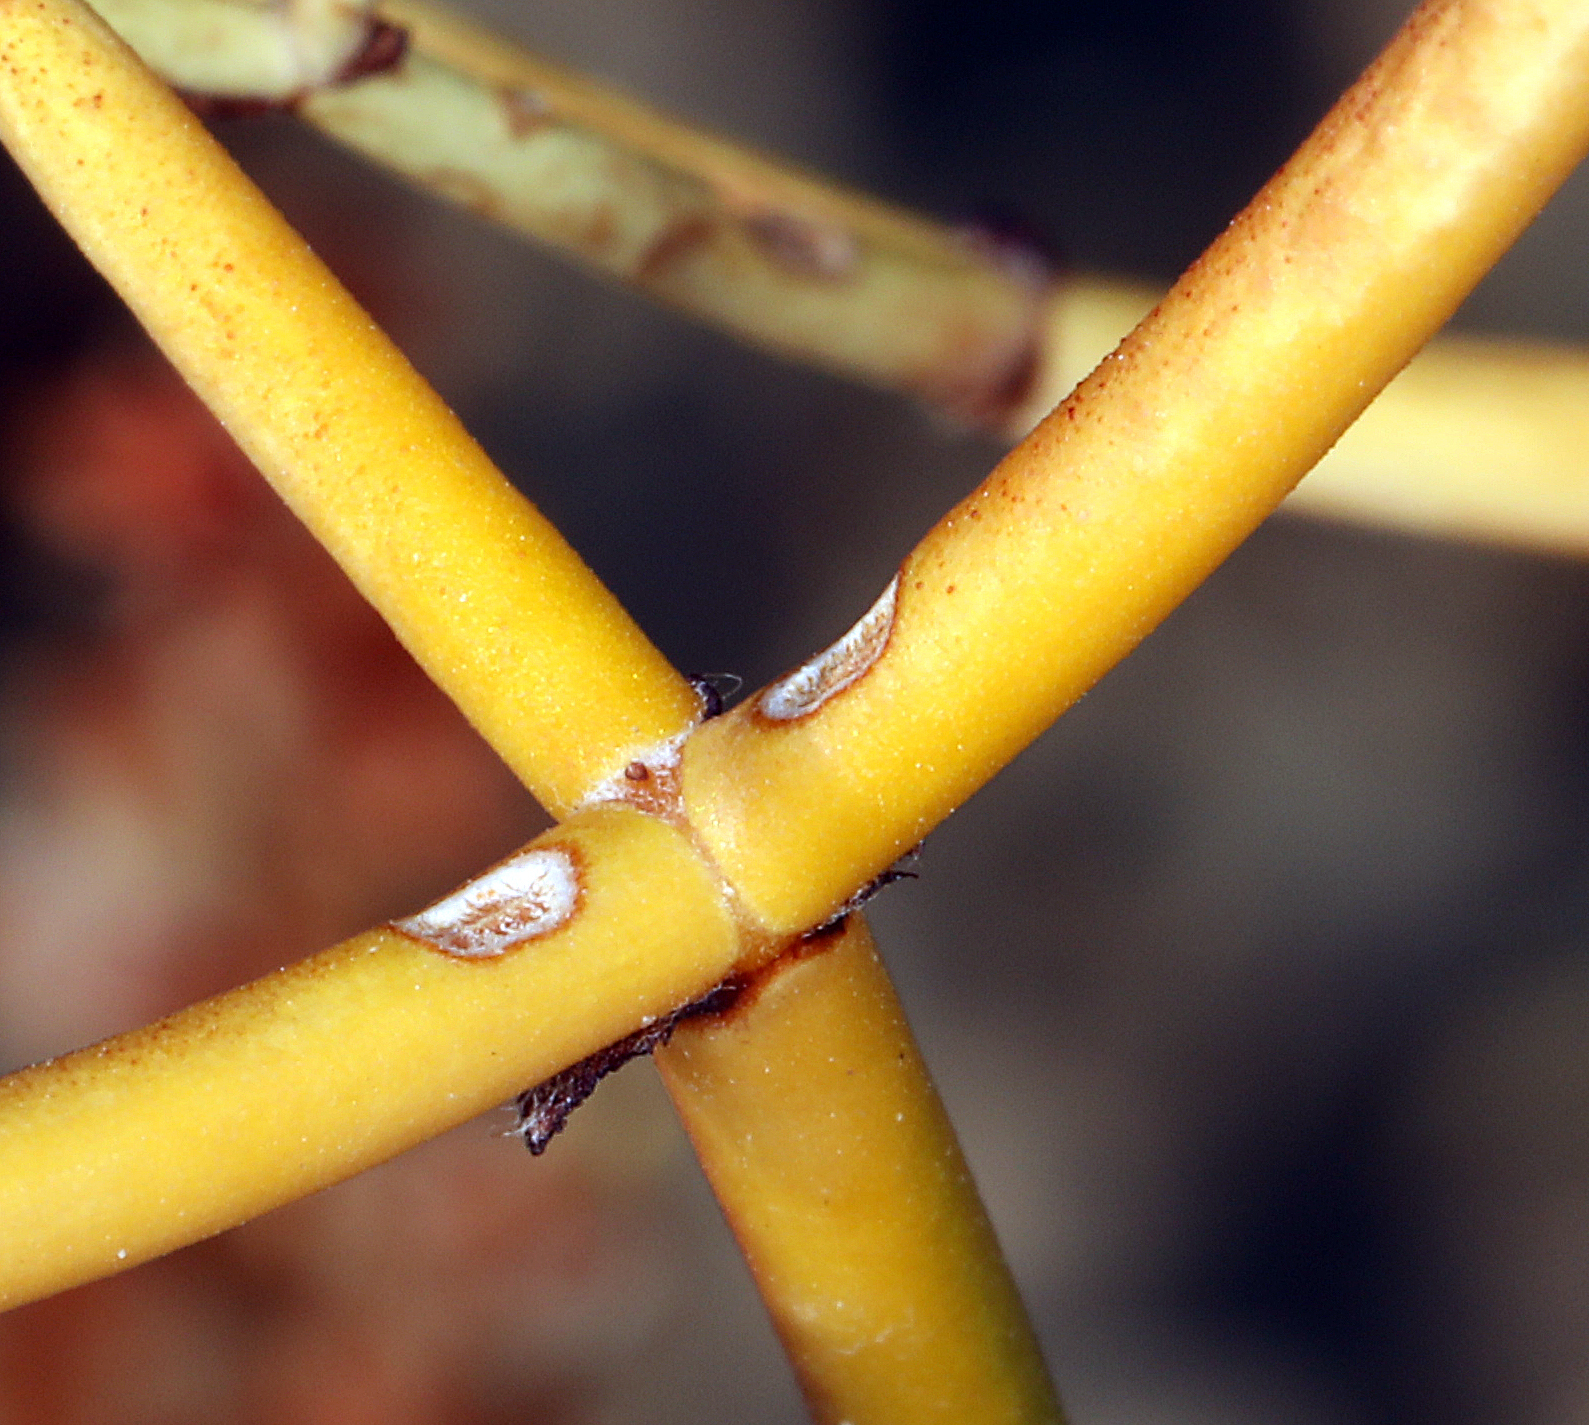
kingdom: Plantae
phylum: Tracheophyta
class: Magnoliopsida
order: Caryophyllales
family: Polygonaceae
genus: Eriogonum
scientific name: Eriogonum heermannii
